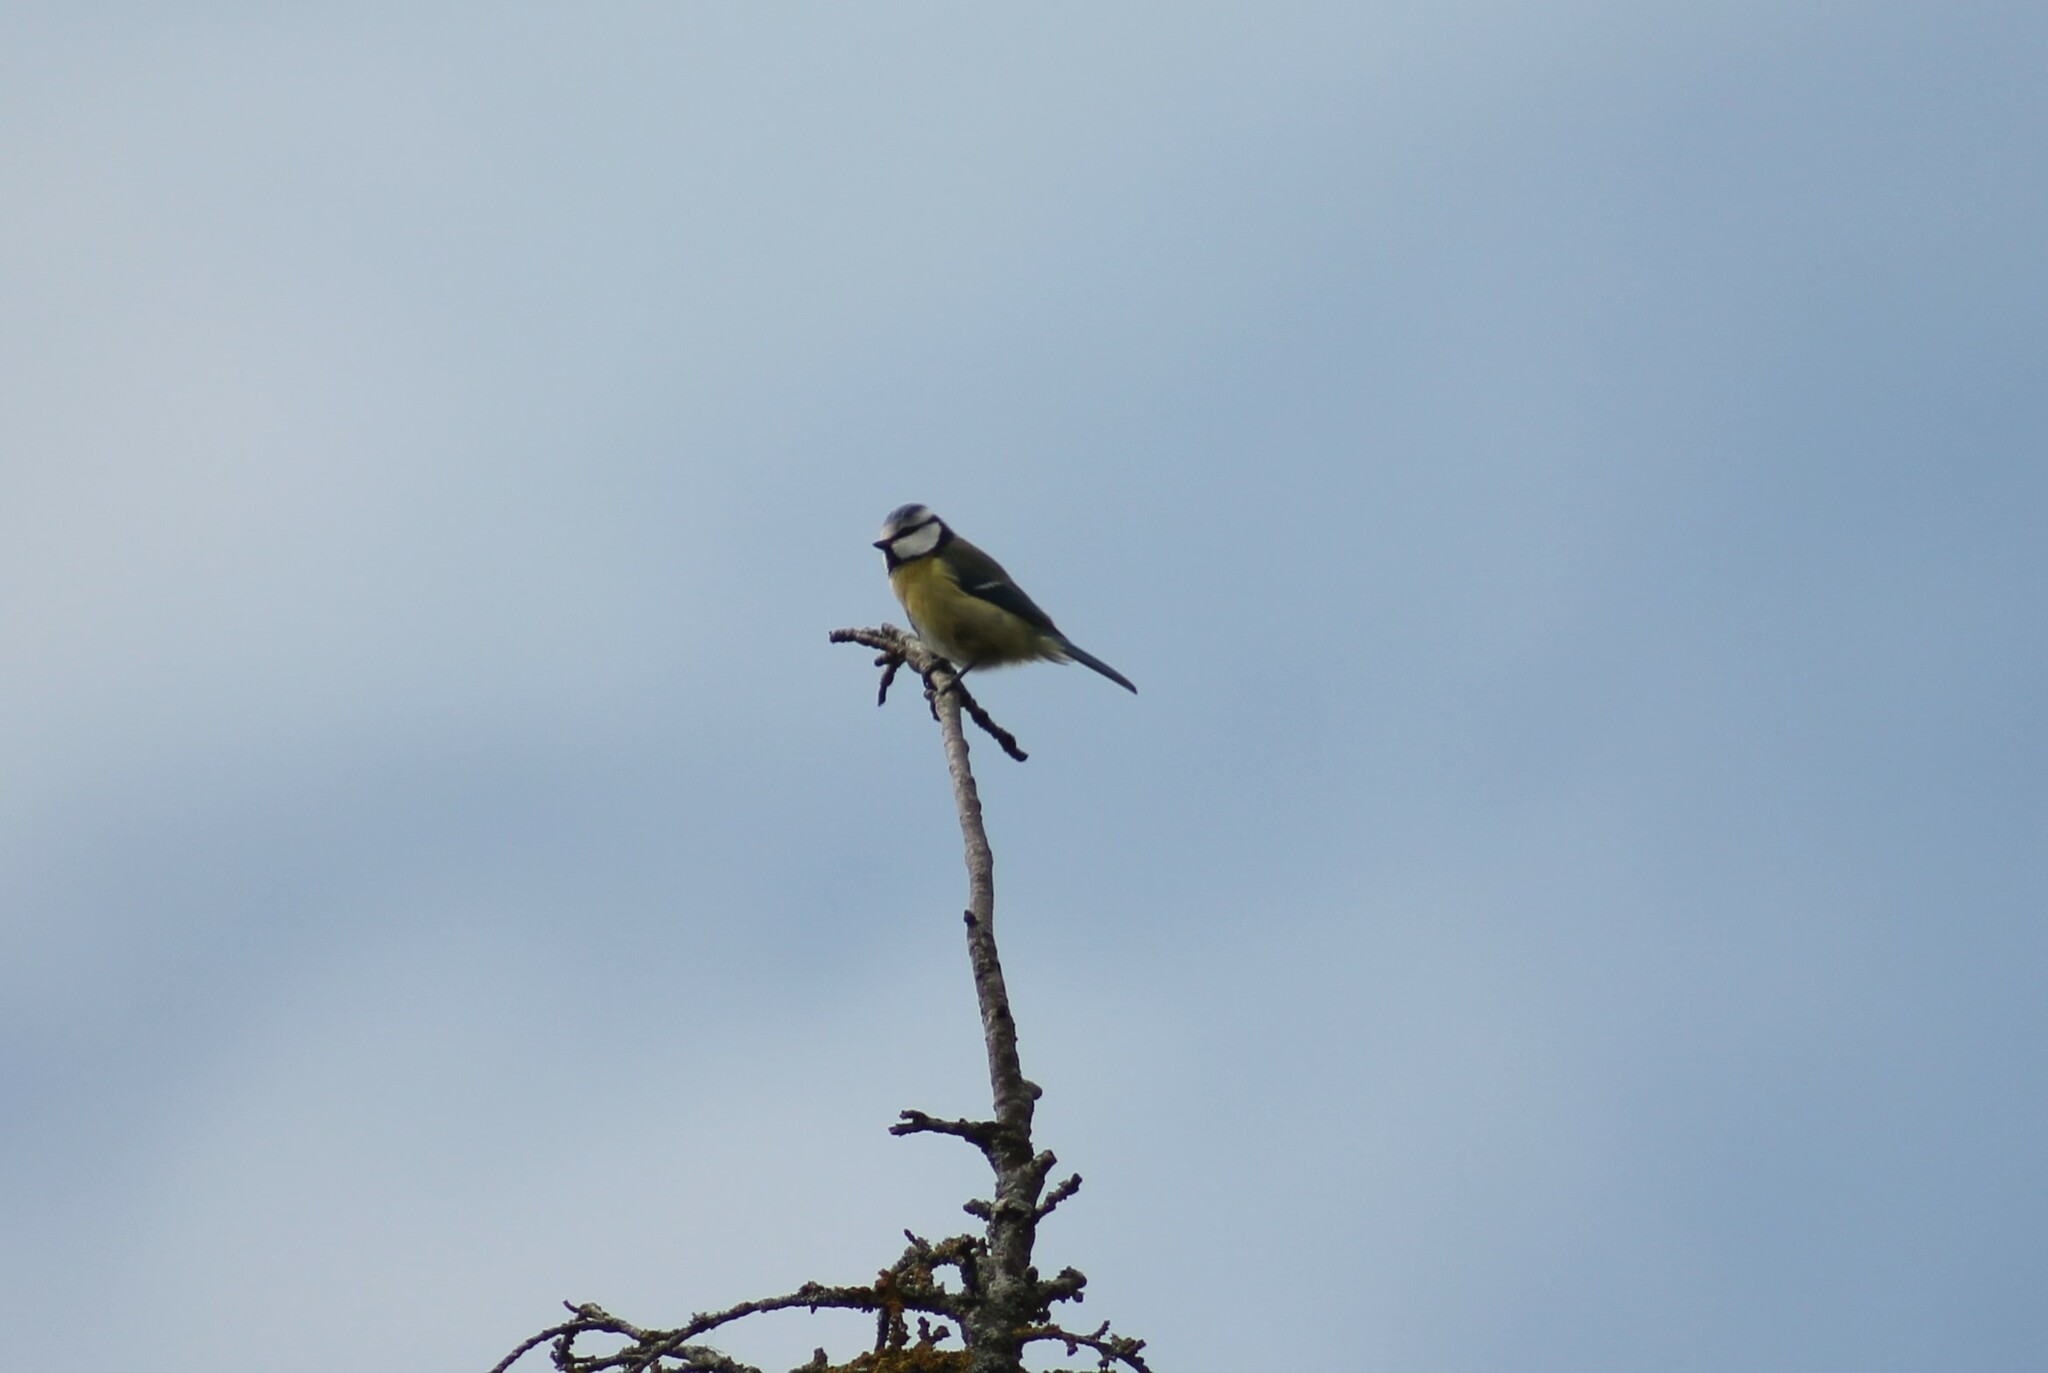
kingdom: Animalia
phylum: Chordata
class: Aves
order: Passeriformes
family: Paridae
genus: Cyanistes
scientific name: Cyanistes caeruleus
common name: Eurasian blue tit
